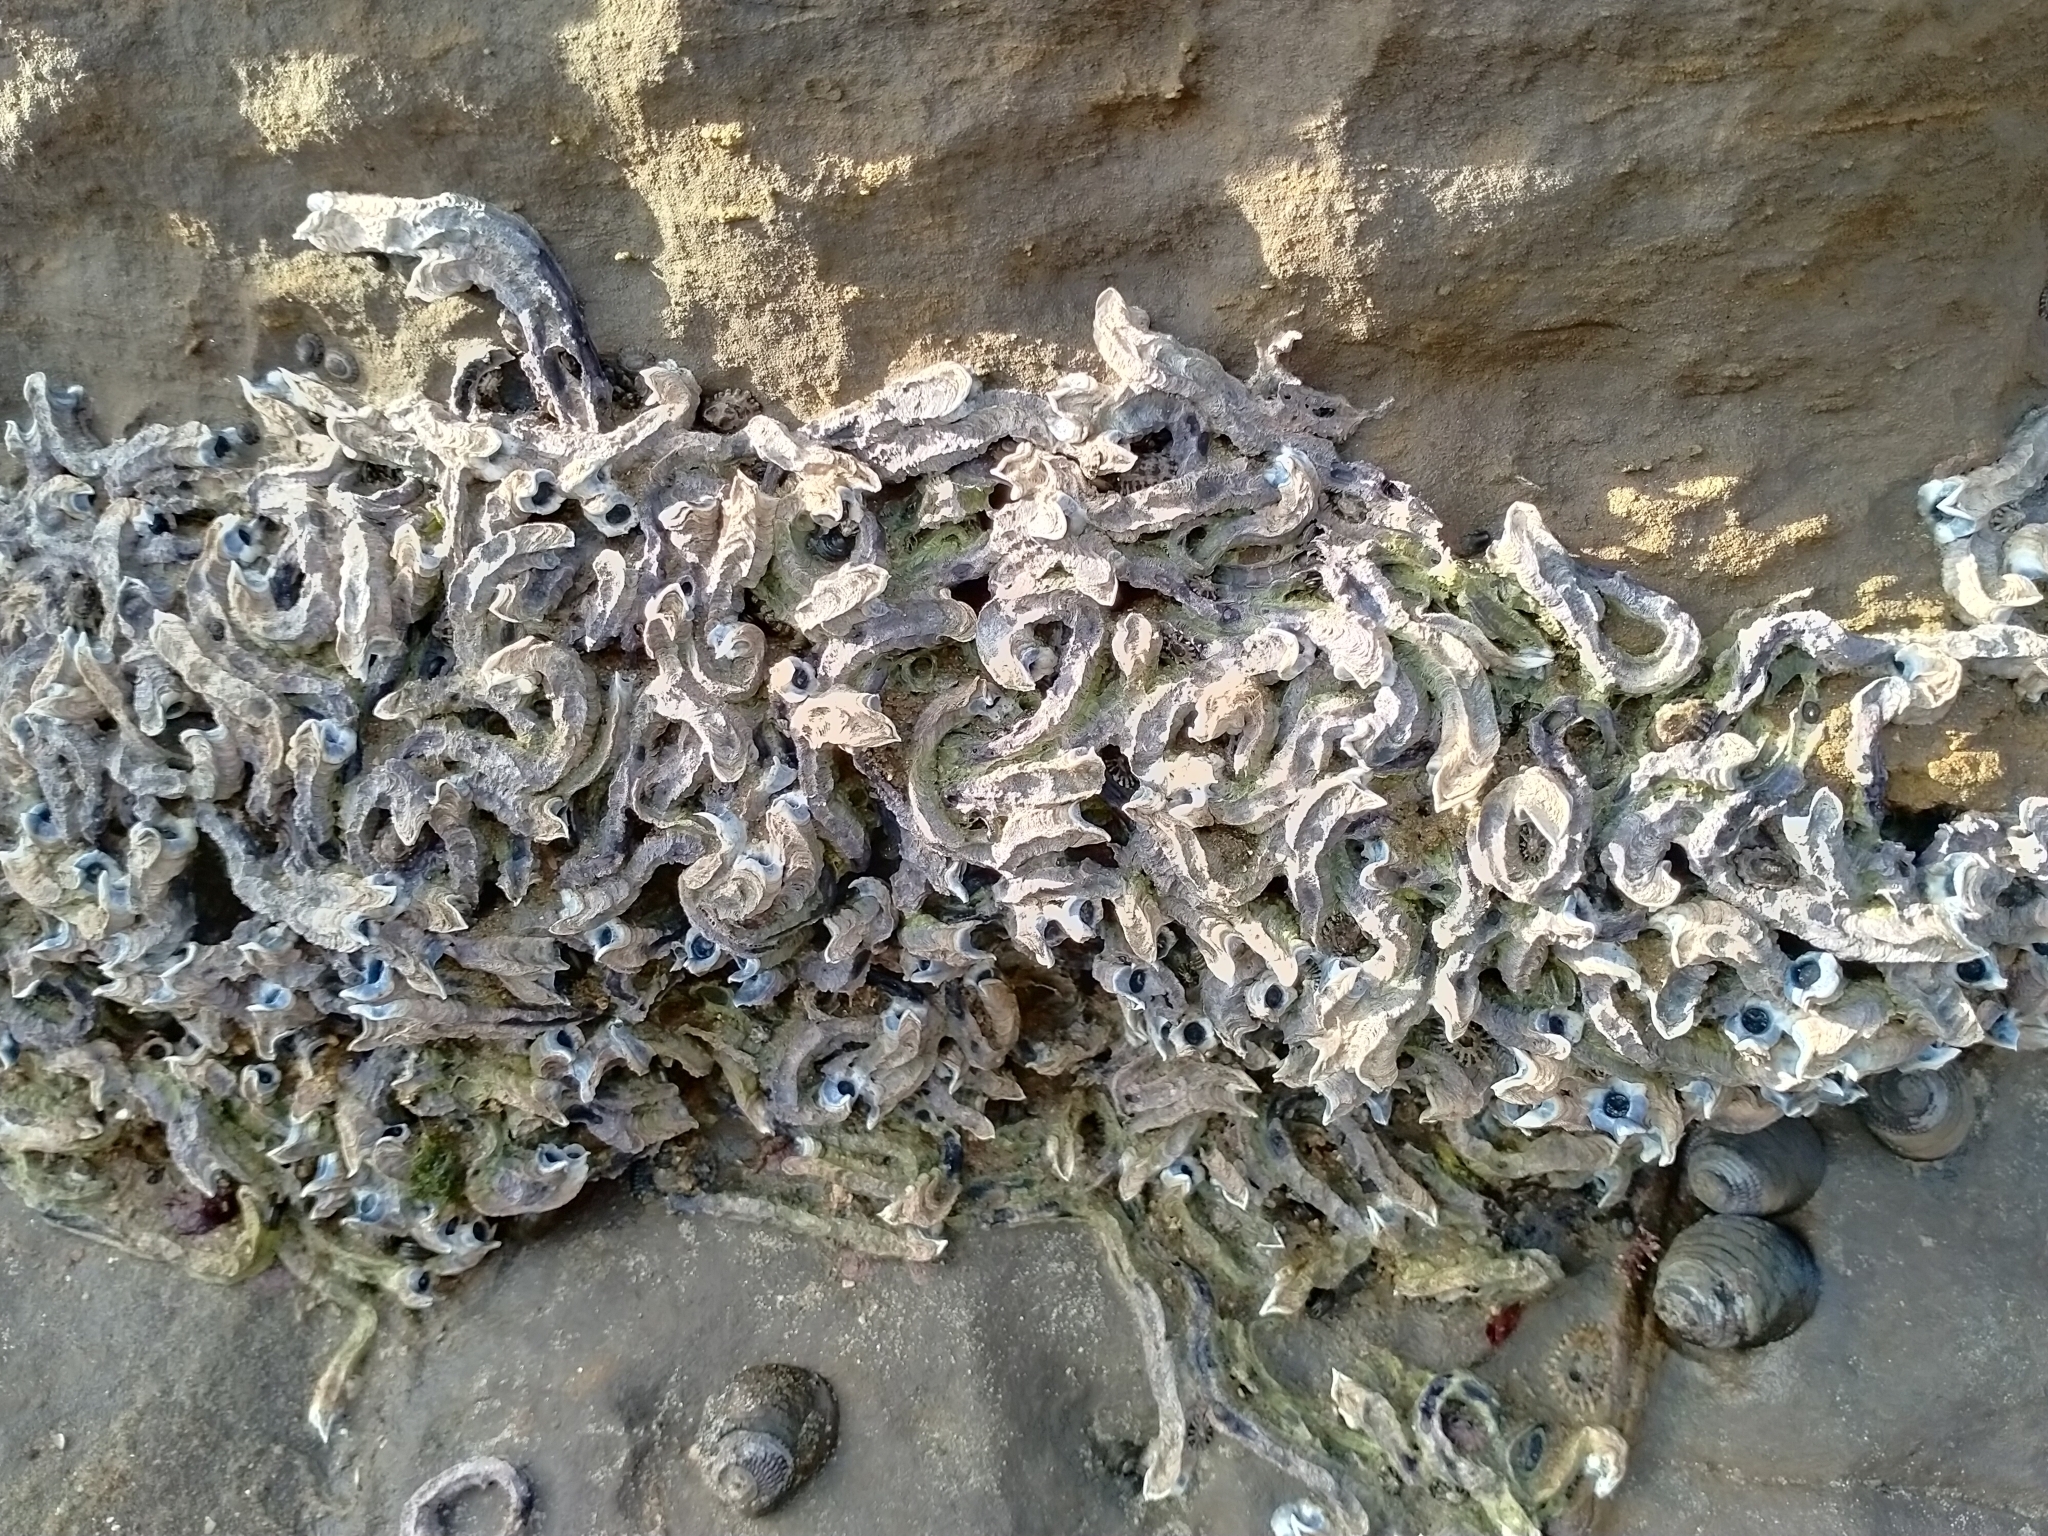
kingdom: Animalia
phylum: Annelida
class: Polychaeta
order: Sabellida
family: Serpulidae
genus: Spirobranchus
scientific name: Spirobranchus cariniferus
